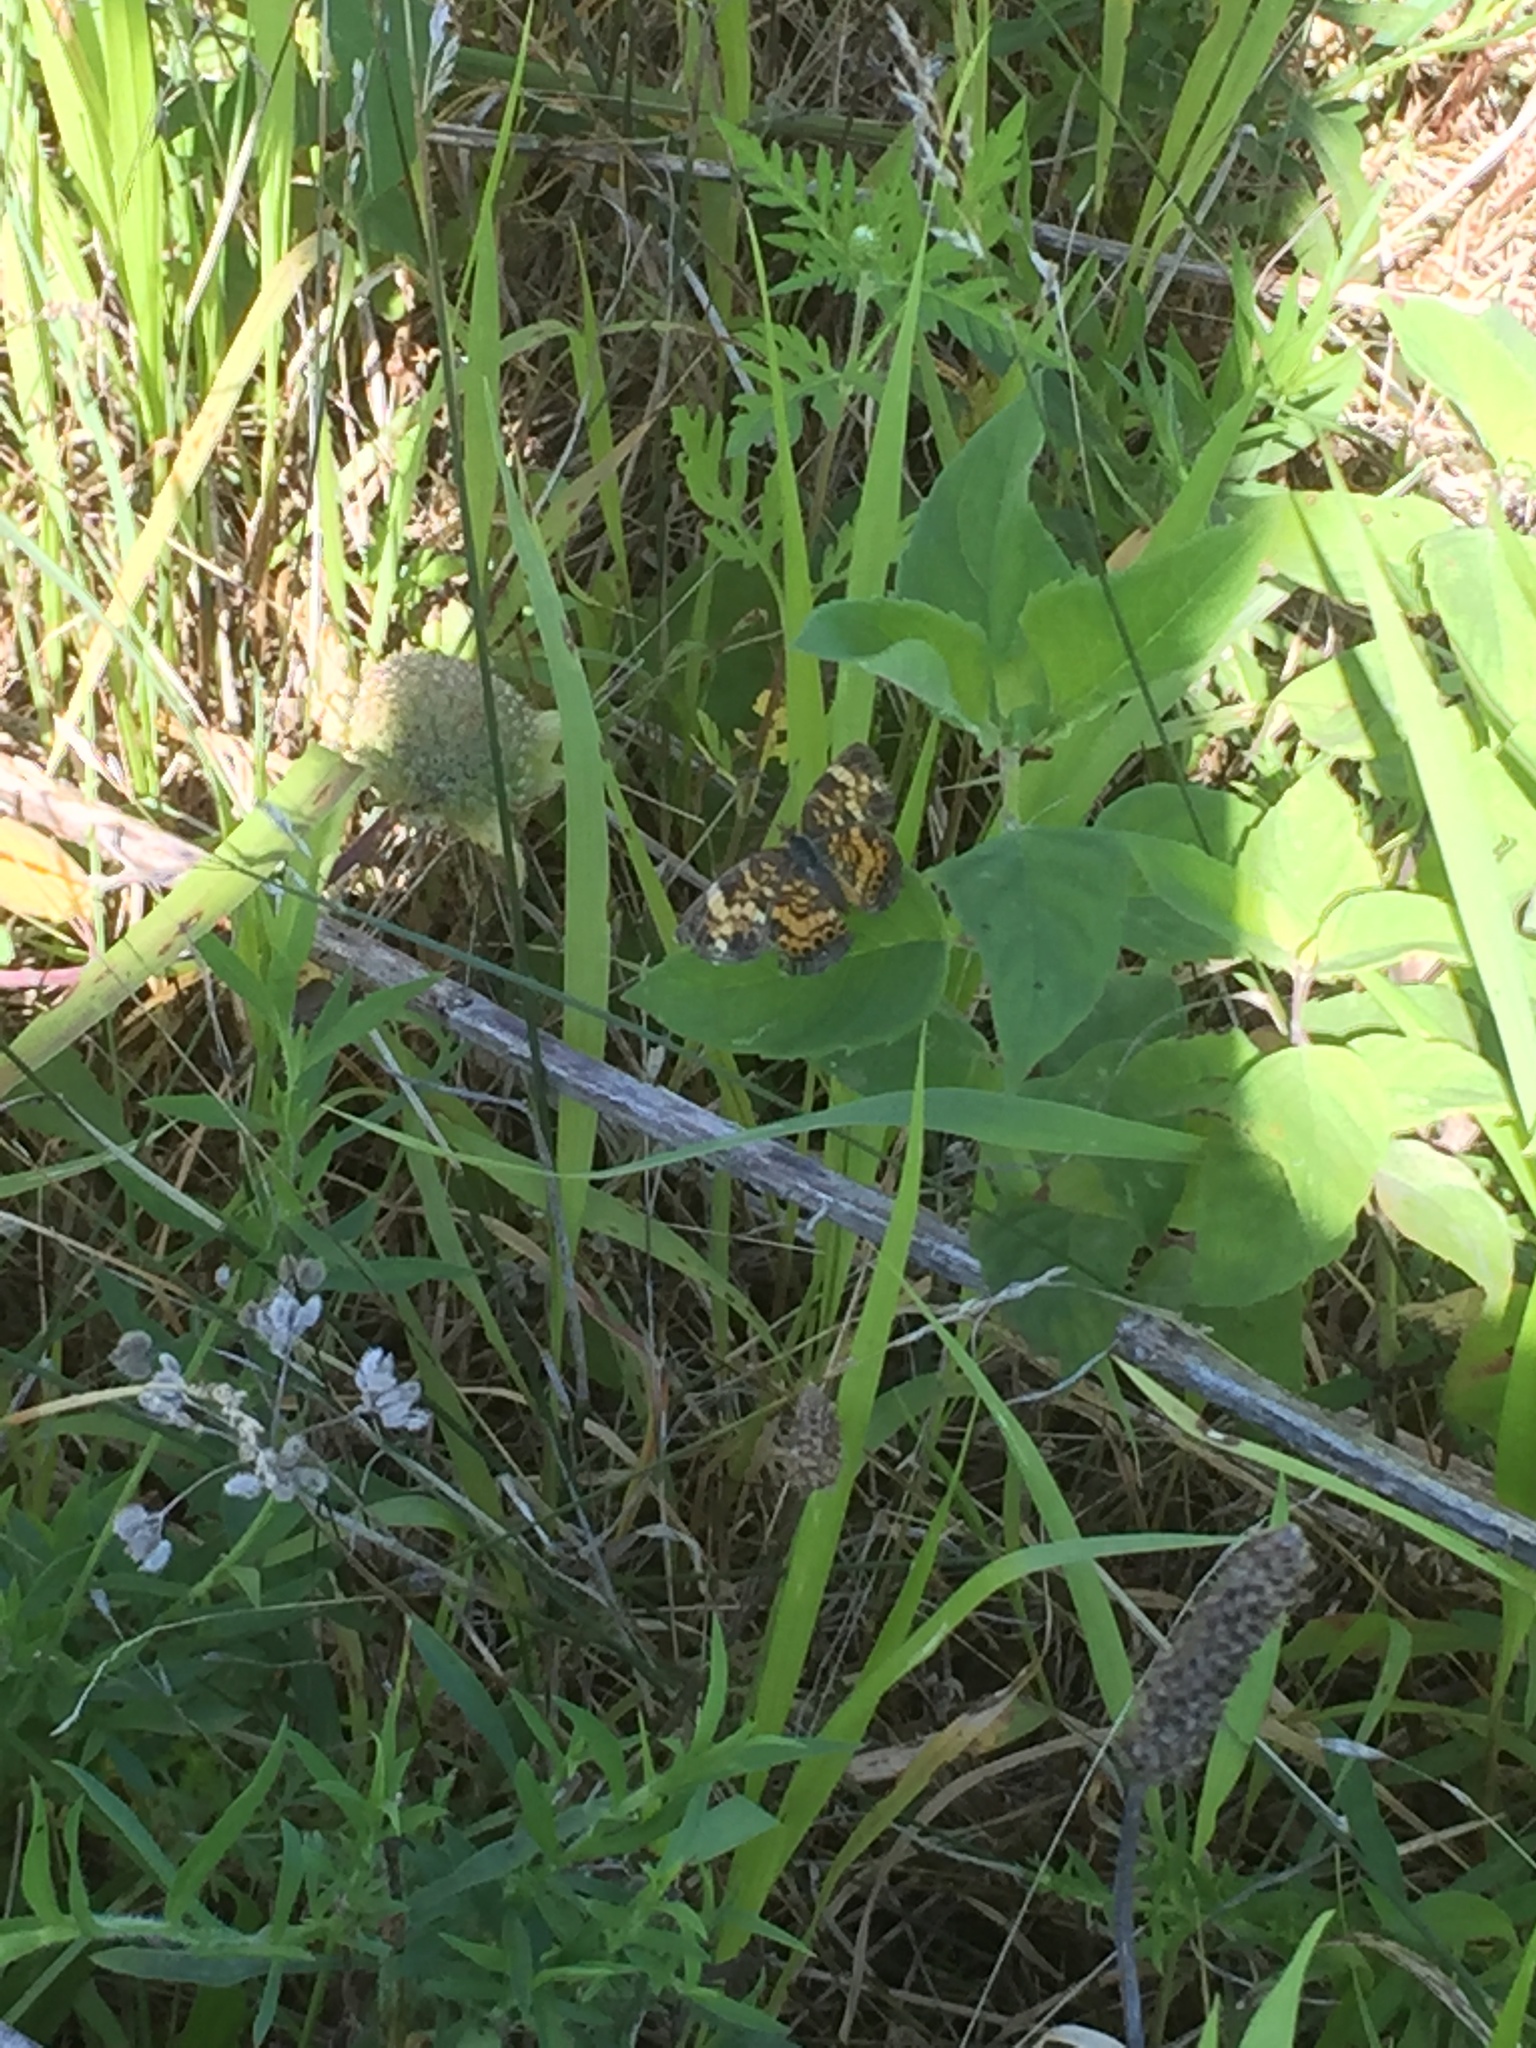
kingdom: Animalia
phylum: Arthropoda
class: Insecta
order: Lepidoptera
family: Nymphalidae
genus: Chlosyne
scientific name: Chlosyne nycteis
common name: Silvery checkerspot
